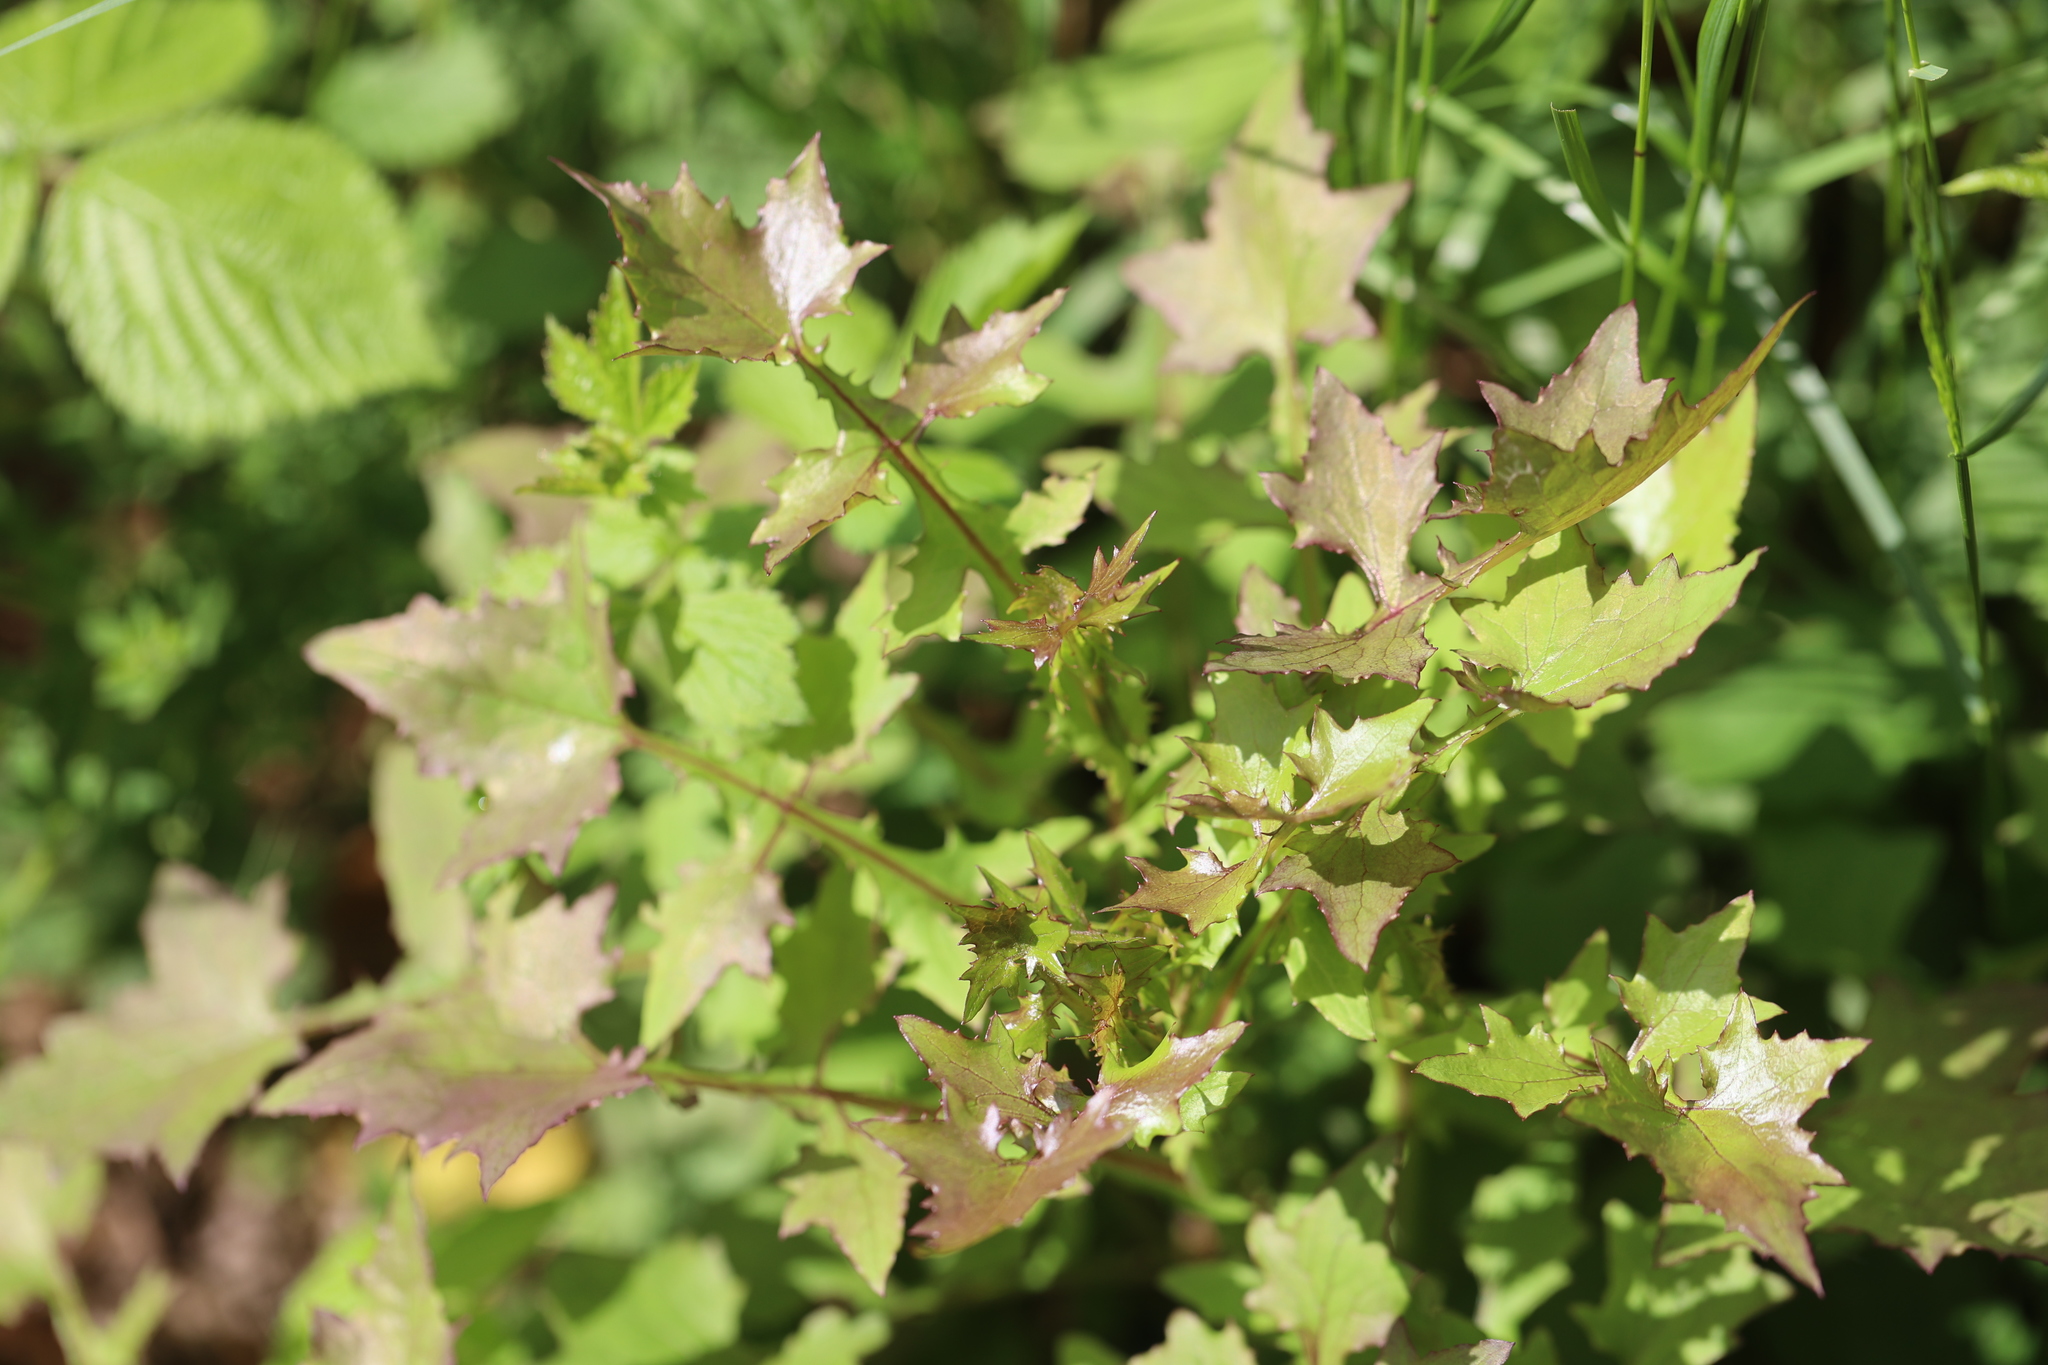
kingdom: Plantae
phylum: Tracheophyta
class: Magnoliopsida
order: Asterales
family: Asteraceae
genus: Mycelis
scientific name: Mycelis muralis
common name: Wall lettuce
